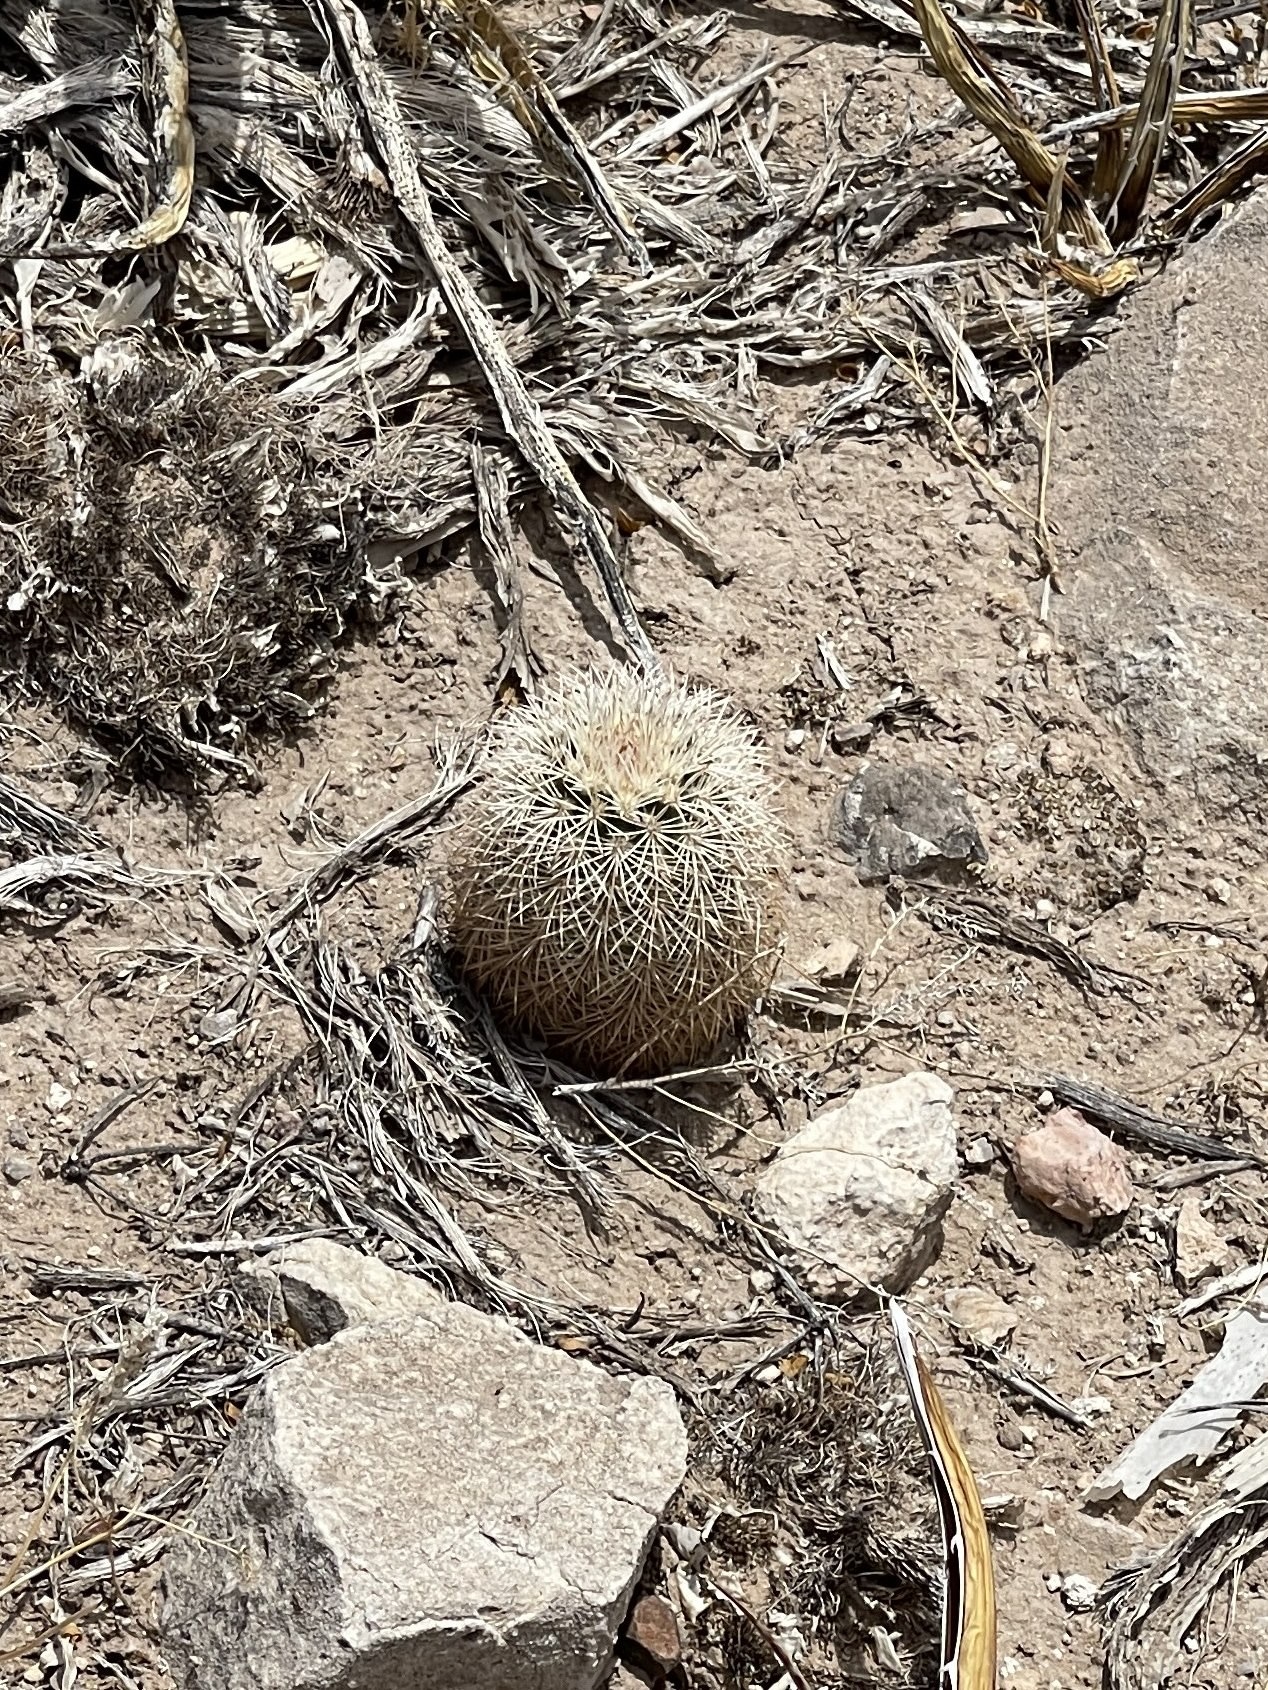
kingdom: Plantae
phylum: Tracheophyta
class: Magnoliopsida
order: Caryophyllales
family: Cactaceae
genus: Echinocereus
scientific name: Echinocereus dasyacanthus
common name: Spiny hedgehog cactus
